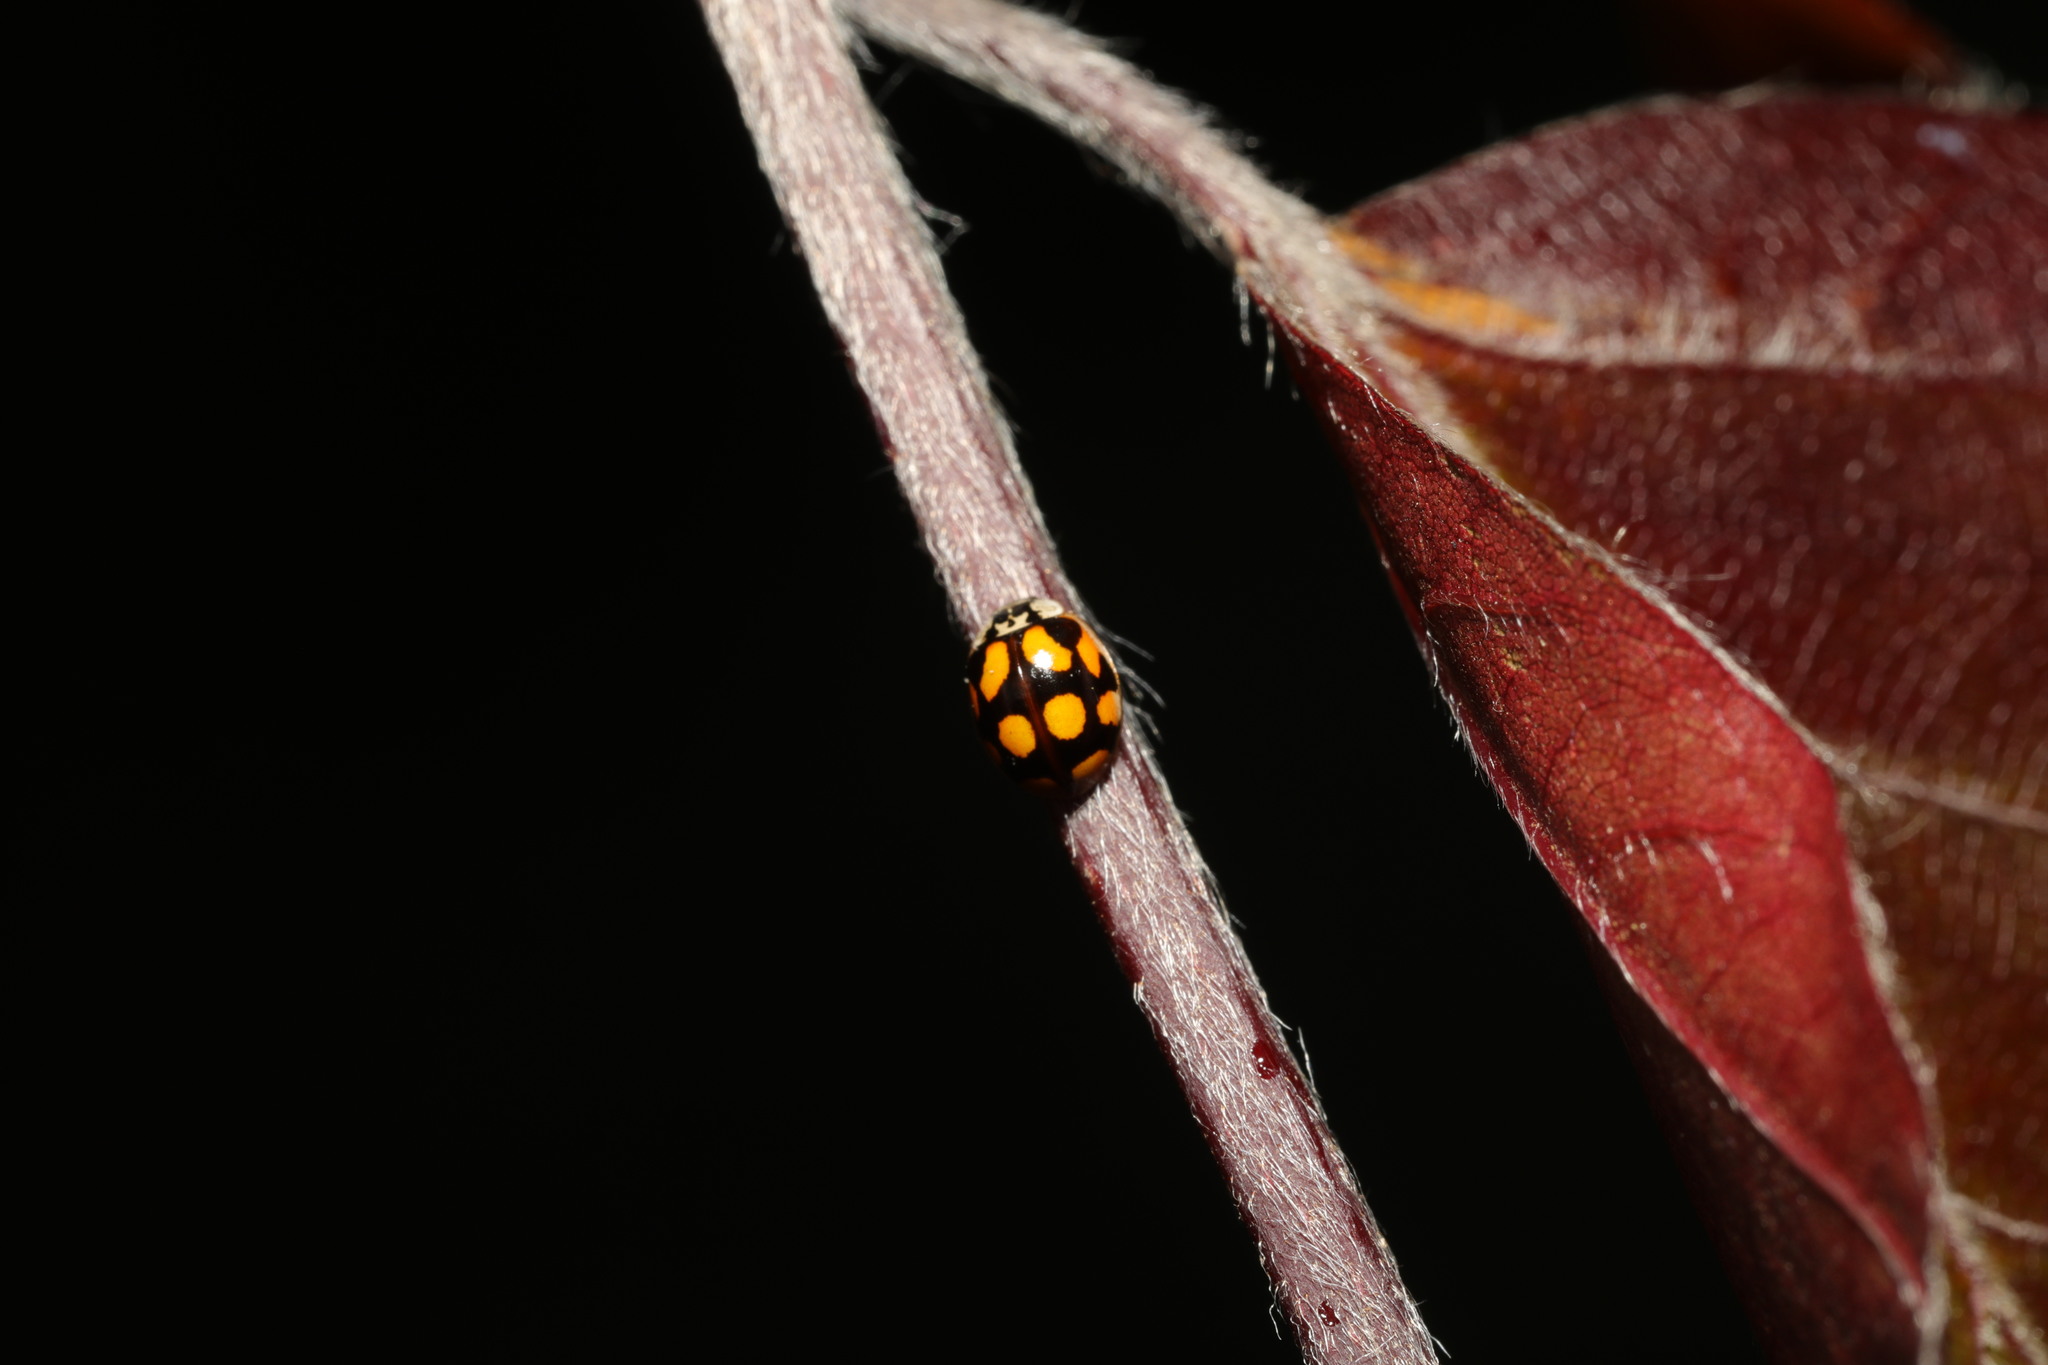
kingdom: Animalia
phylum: Arthropoda
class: Insecta
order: Coleoptera
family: Coccinellidae
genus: Adalia
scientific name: Adalia decempunctata
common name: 10-spot ladybird
